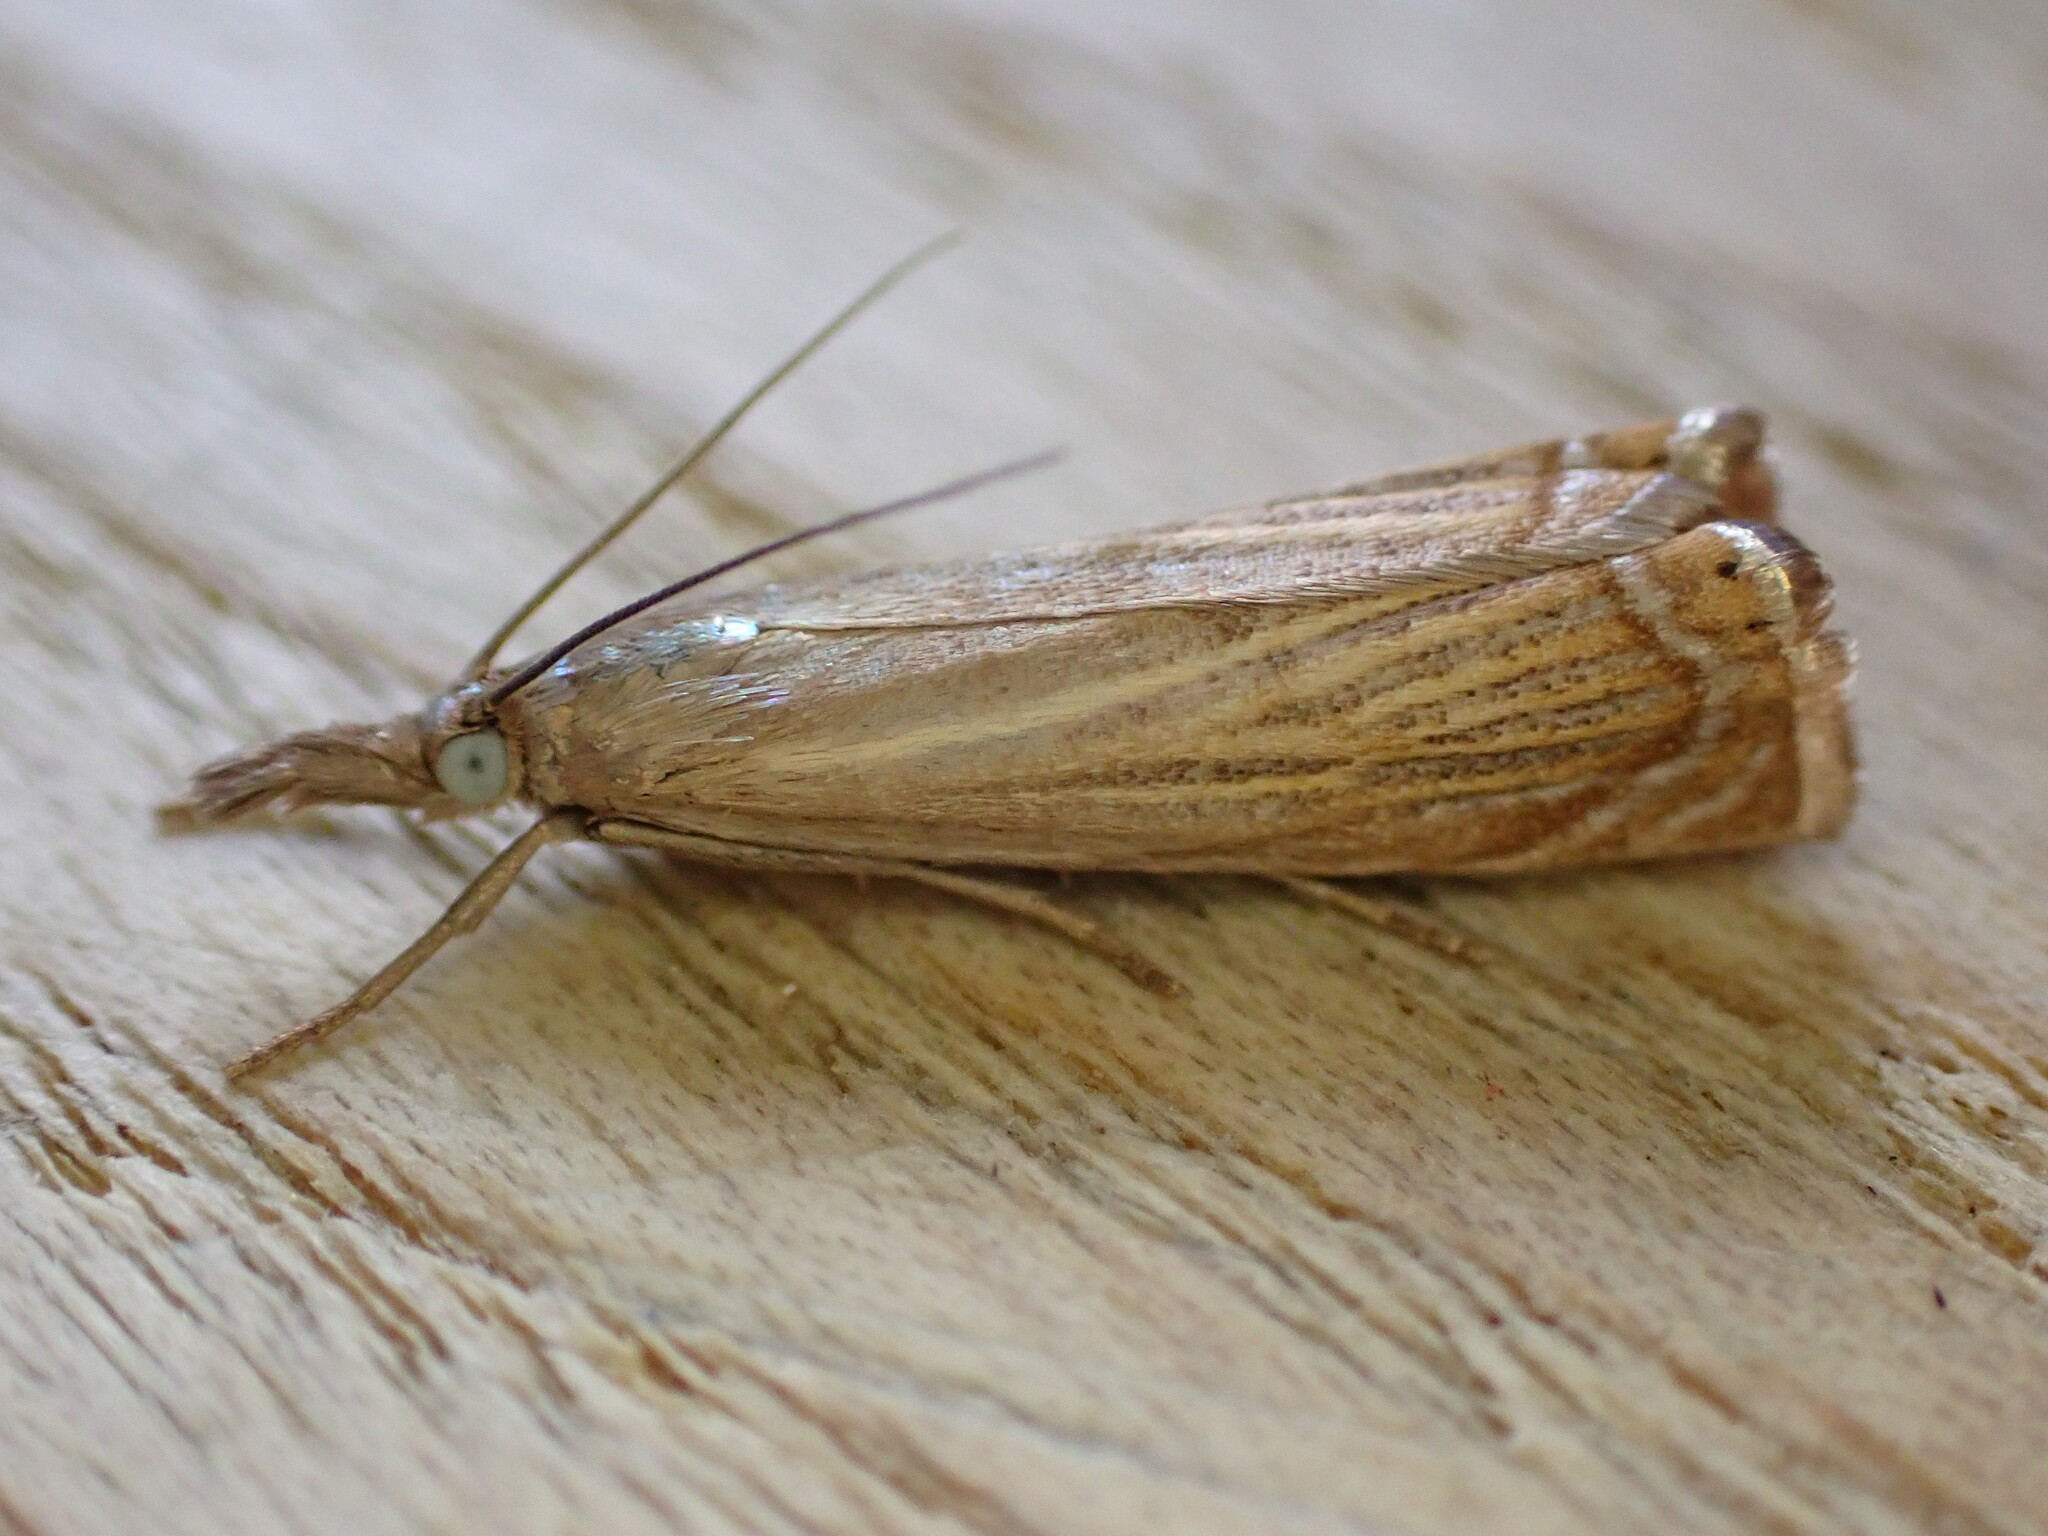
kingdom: Animalia
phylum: Arthropoda
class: Insecta
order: Lepidoptera
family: Crambidae
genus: Chrysoteuchia
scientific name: Chrysoteuchia culmella
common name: Garden grass-veneer
